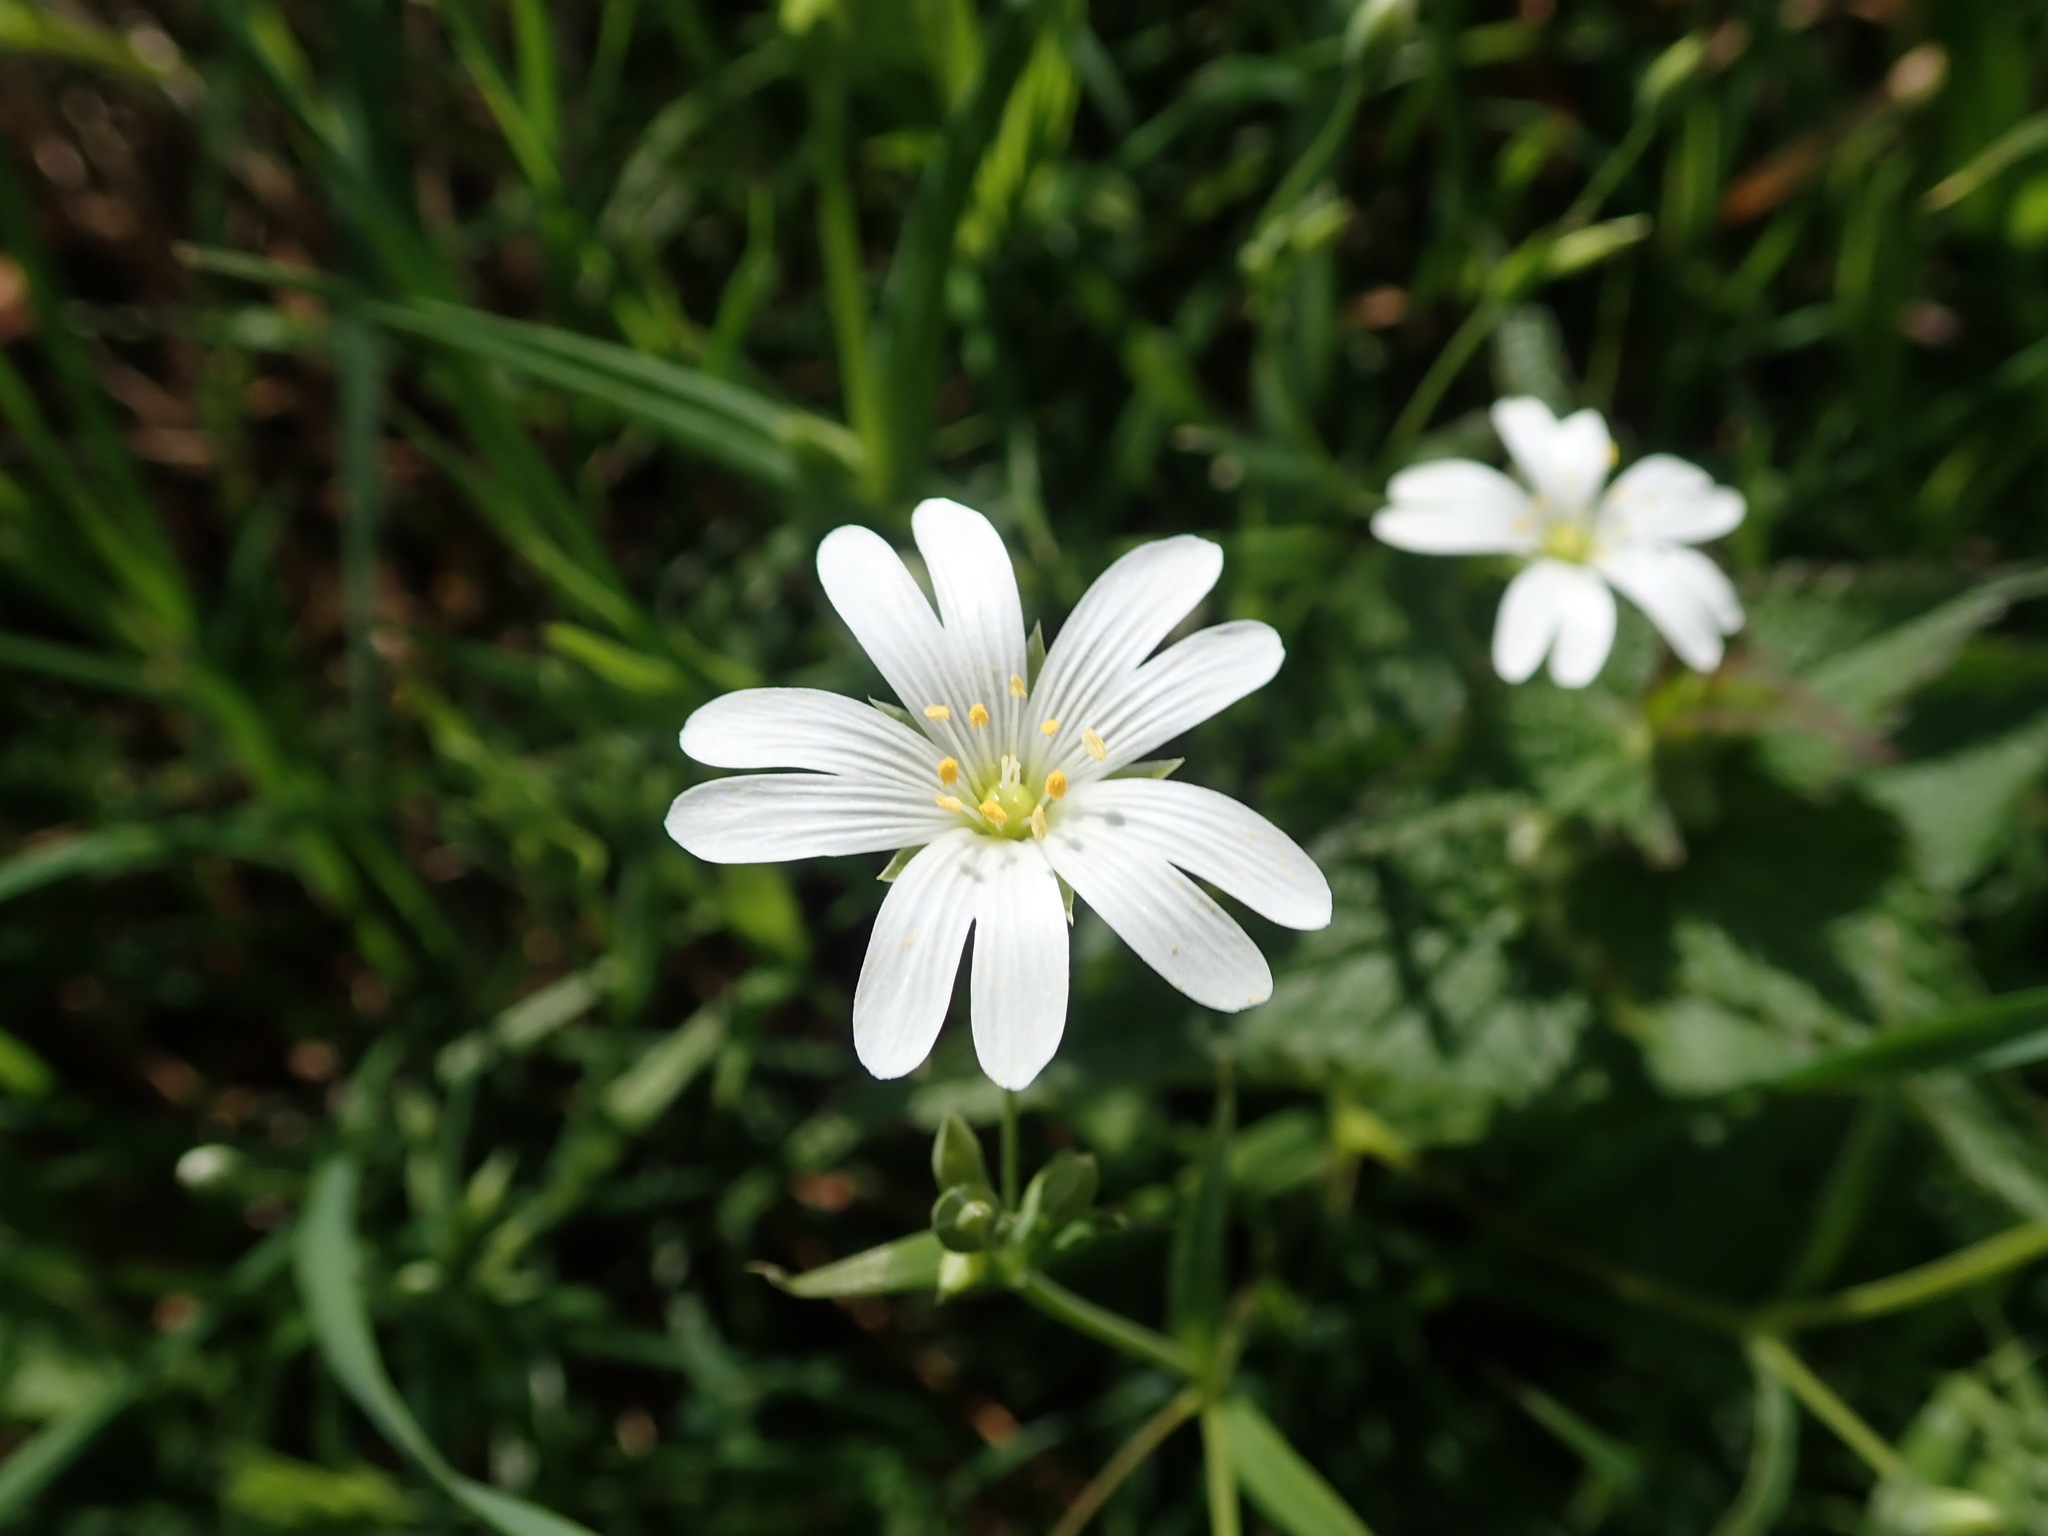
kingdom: Plantae
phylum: Tracheophyta
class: Magnoliopsida
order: Caryophyllales
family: Caryophyllaceae
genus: Rabelera
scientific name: Rabelera holostea
